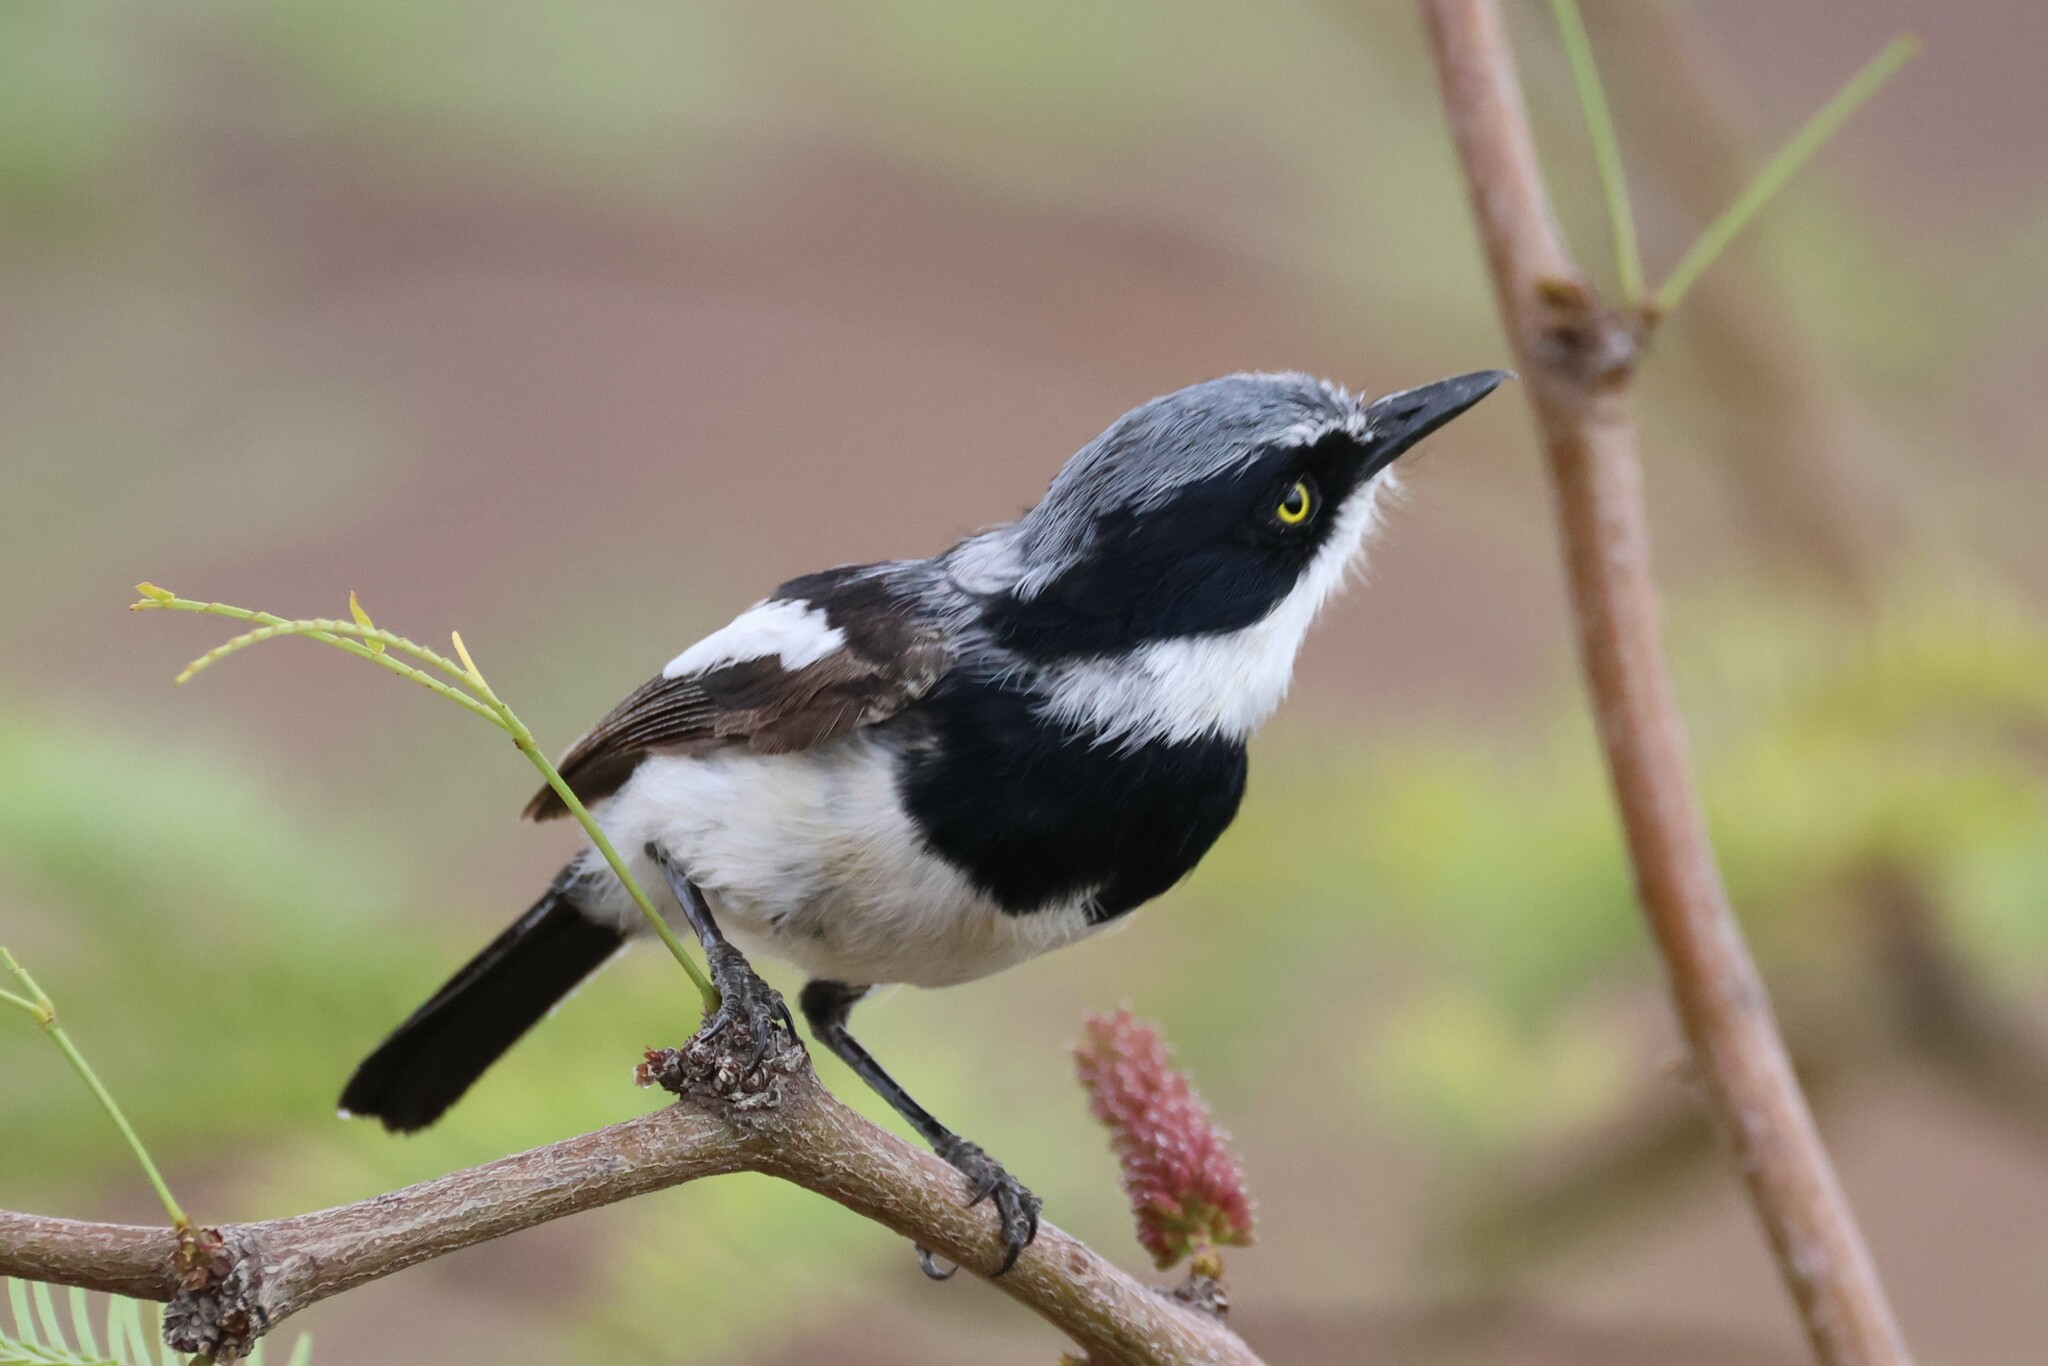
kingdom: Animalia
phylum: Chordata
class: Aves
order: Passeriformes
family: Platysteiridae
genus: Batis
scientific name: Batis pririt
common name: Pririt batis
